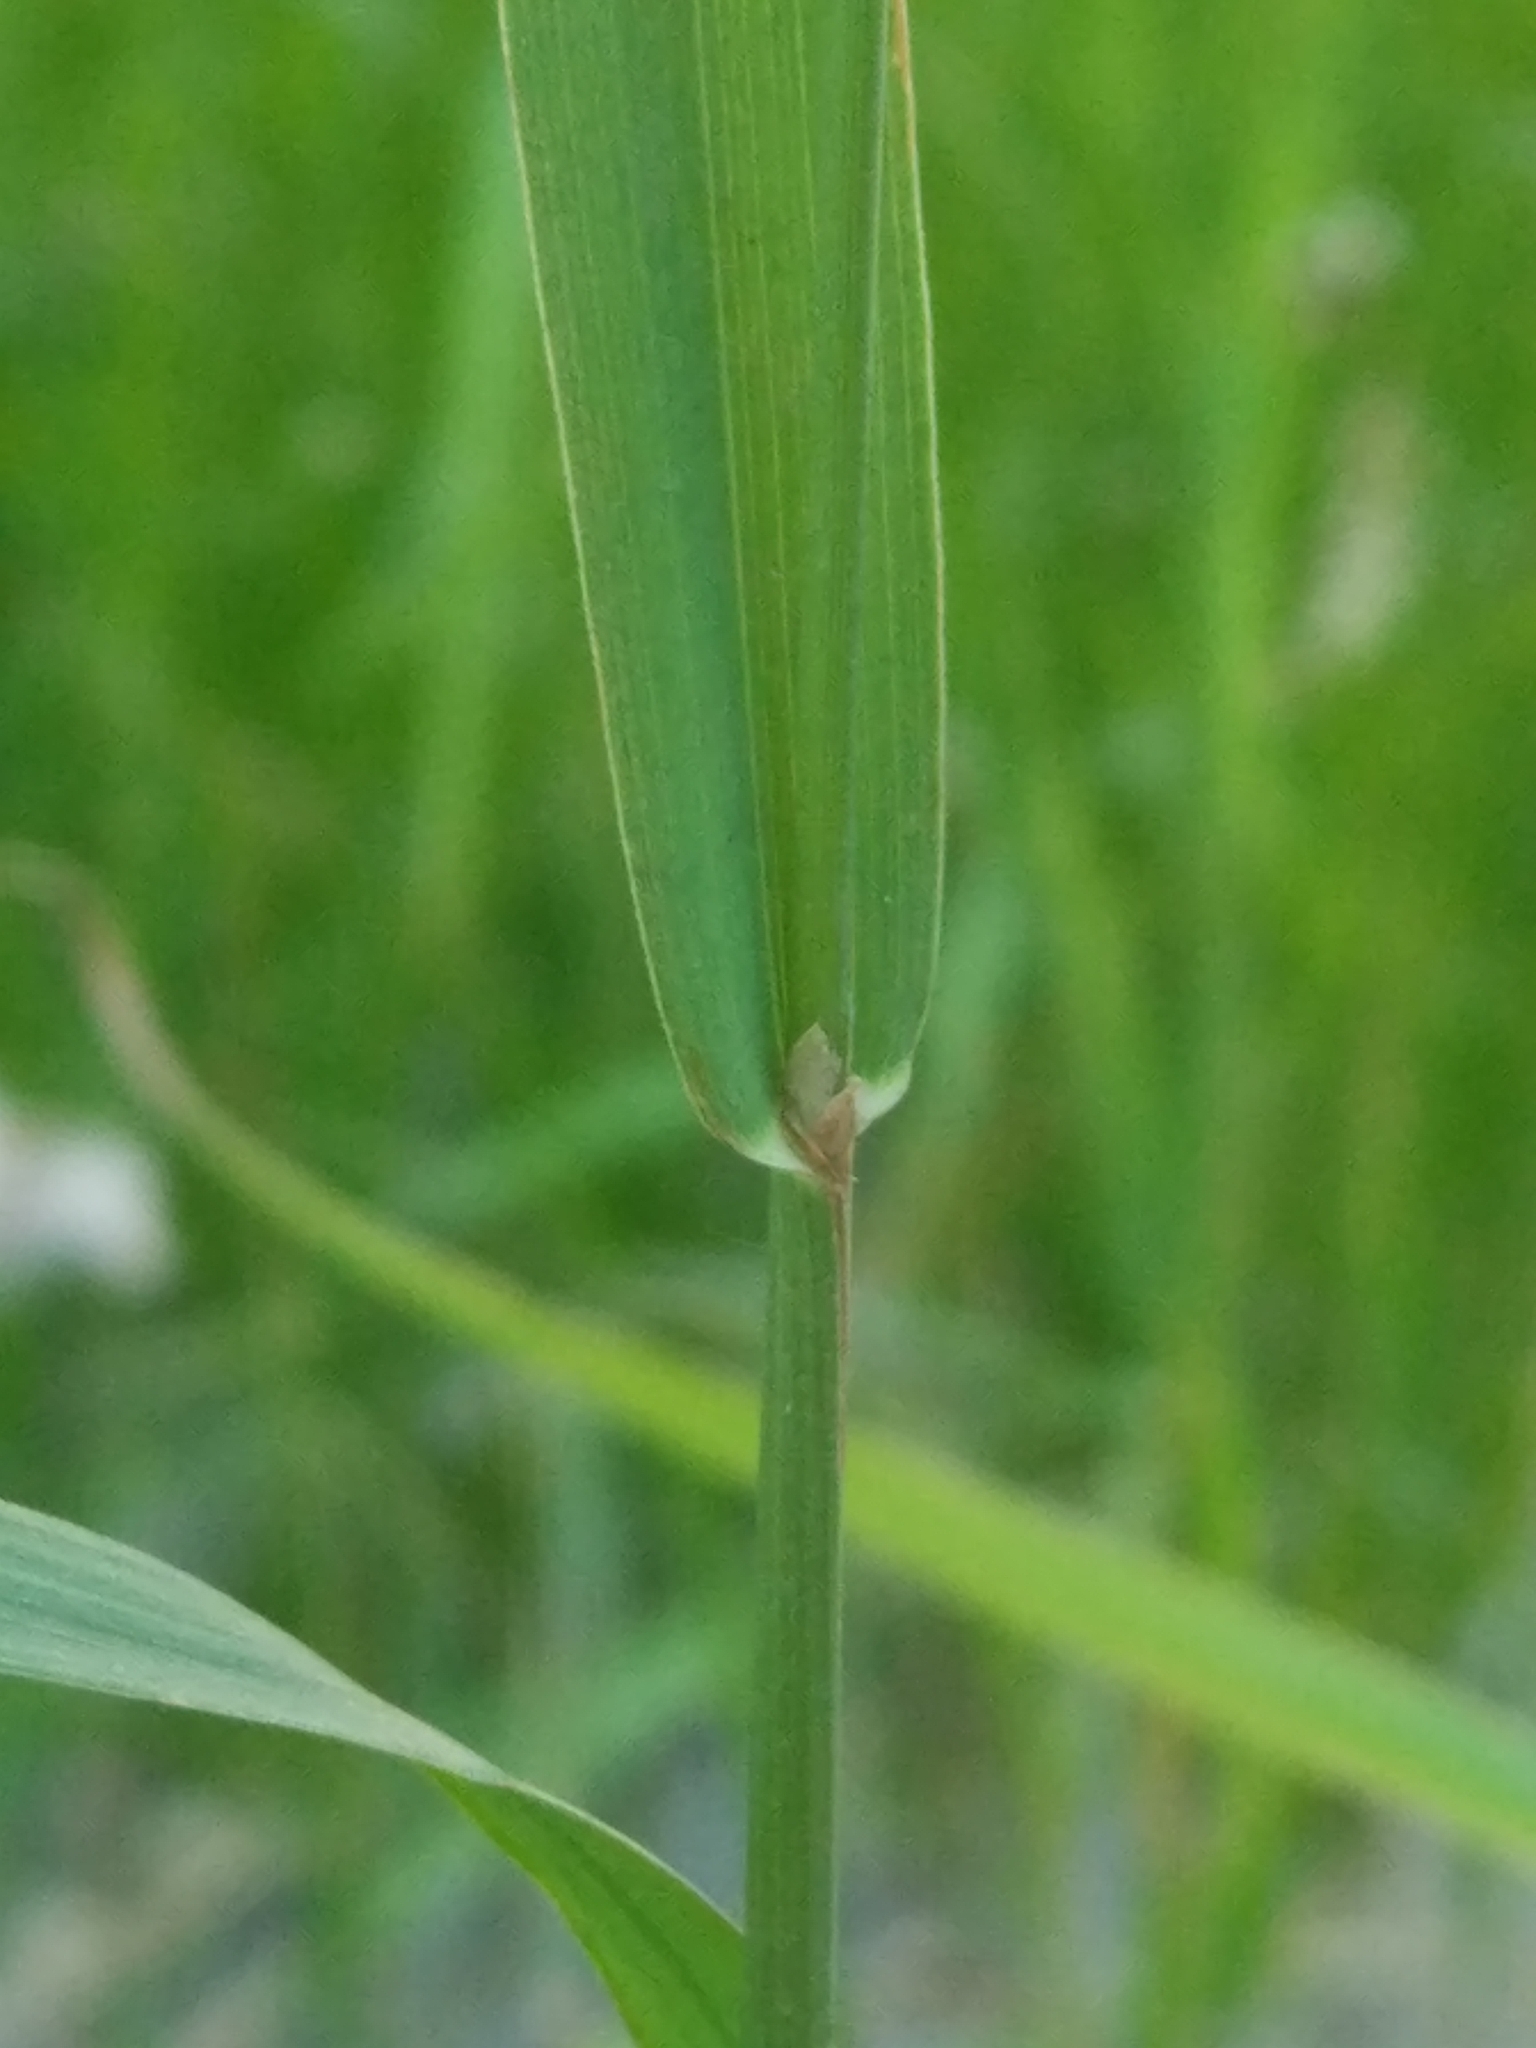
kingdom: Plantae
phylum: Tracheophyta
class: Liliopsida
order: Poales
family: Poaceae
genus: Phleum
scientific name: Phleum pratense
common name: Timothy grass
